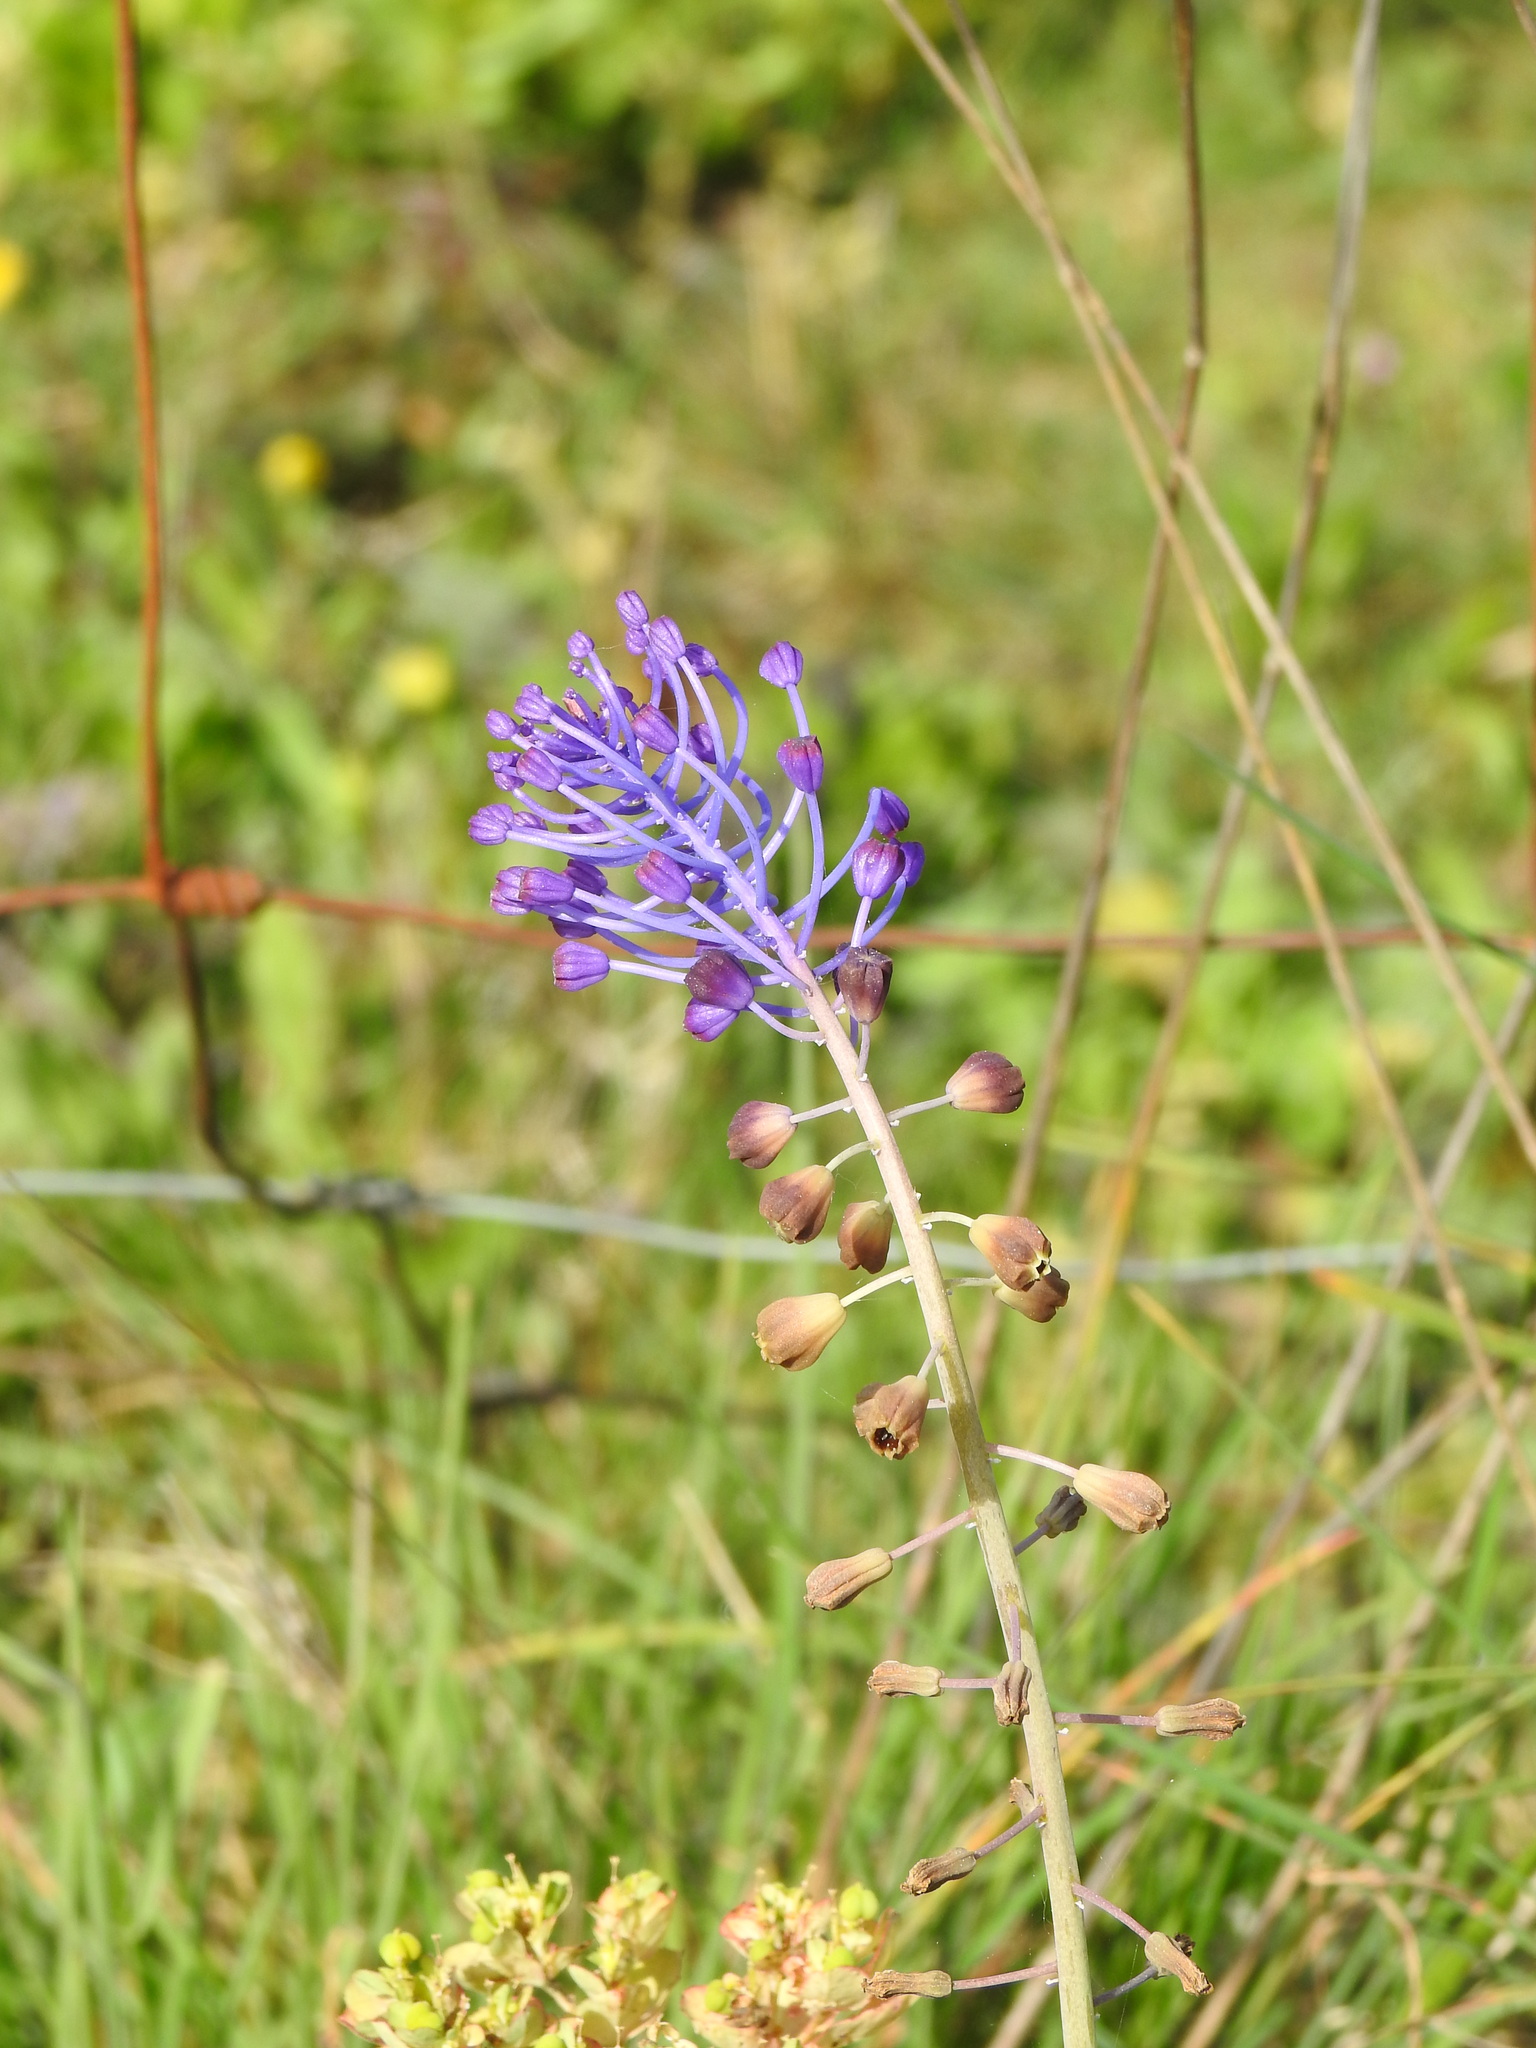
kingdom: Plantae
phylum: Tracheophyta
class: Liliopsida
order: Asparagales
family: Asparagaceae
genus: Muscari
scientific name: Muscari comosum
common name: Tassel hyacinth
